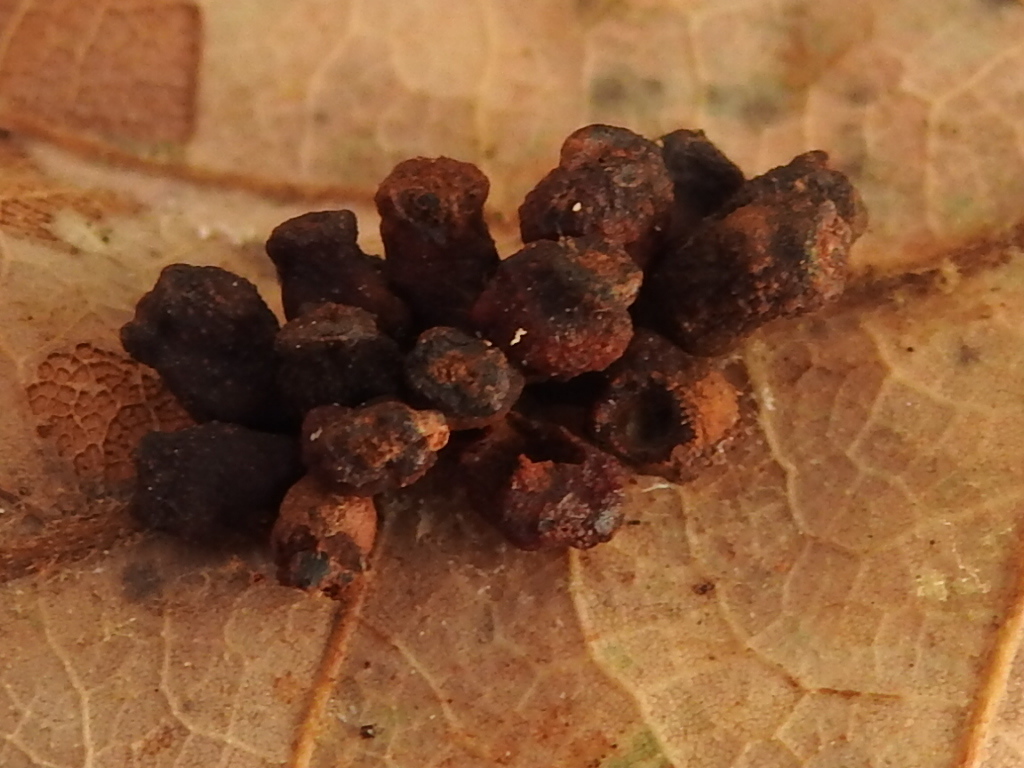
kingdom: Animalia
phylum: Arthropoda
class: Insecta
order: Hymenoptera
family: Cynipidae
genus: Andricus
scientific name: Andricus lustrans
